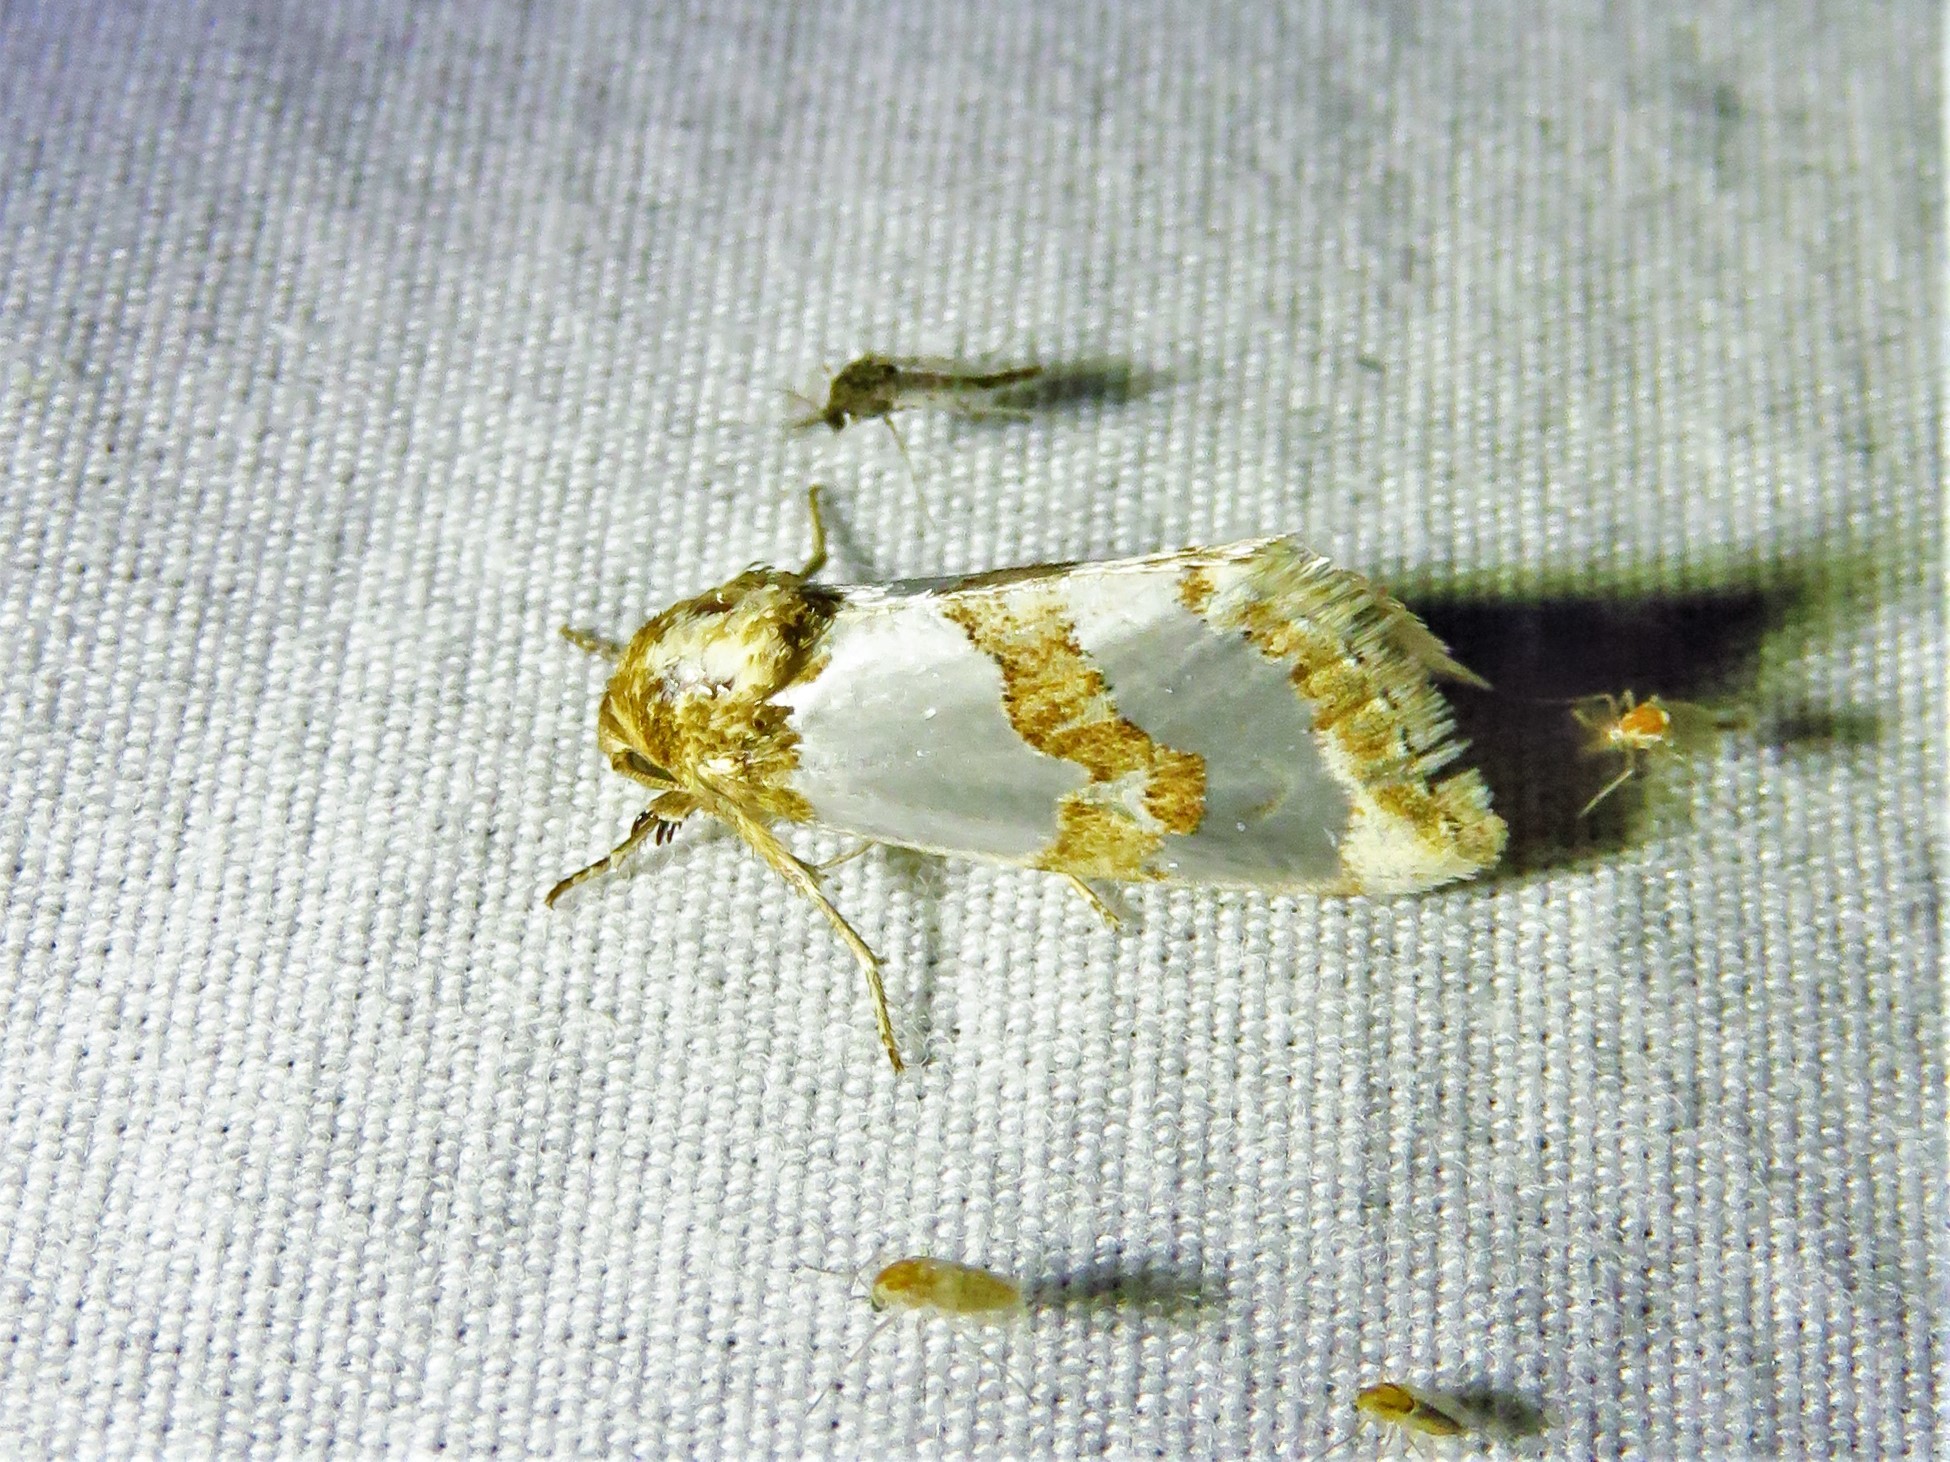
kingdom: Animalia
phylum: Arthropoda
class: Insecta
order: Lepidoptera
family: Noctuidae
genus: Schinia
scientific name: Schinia chrysellus
